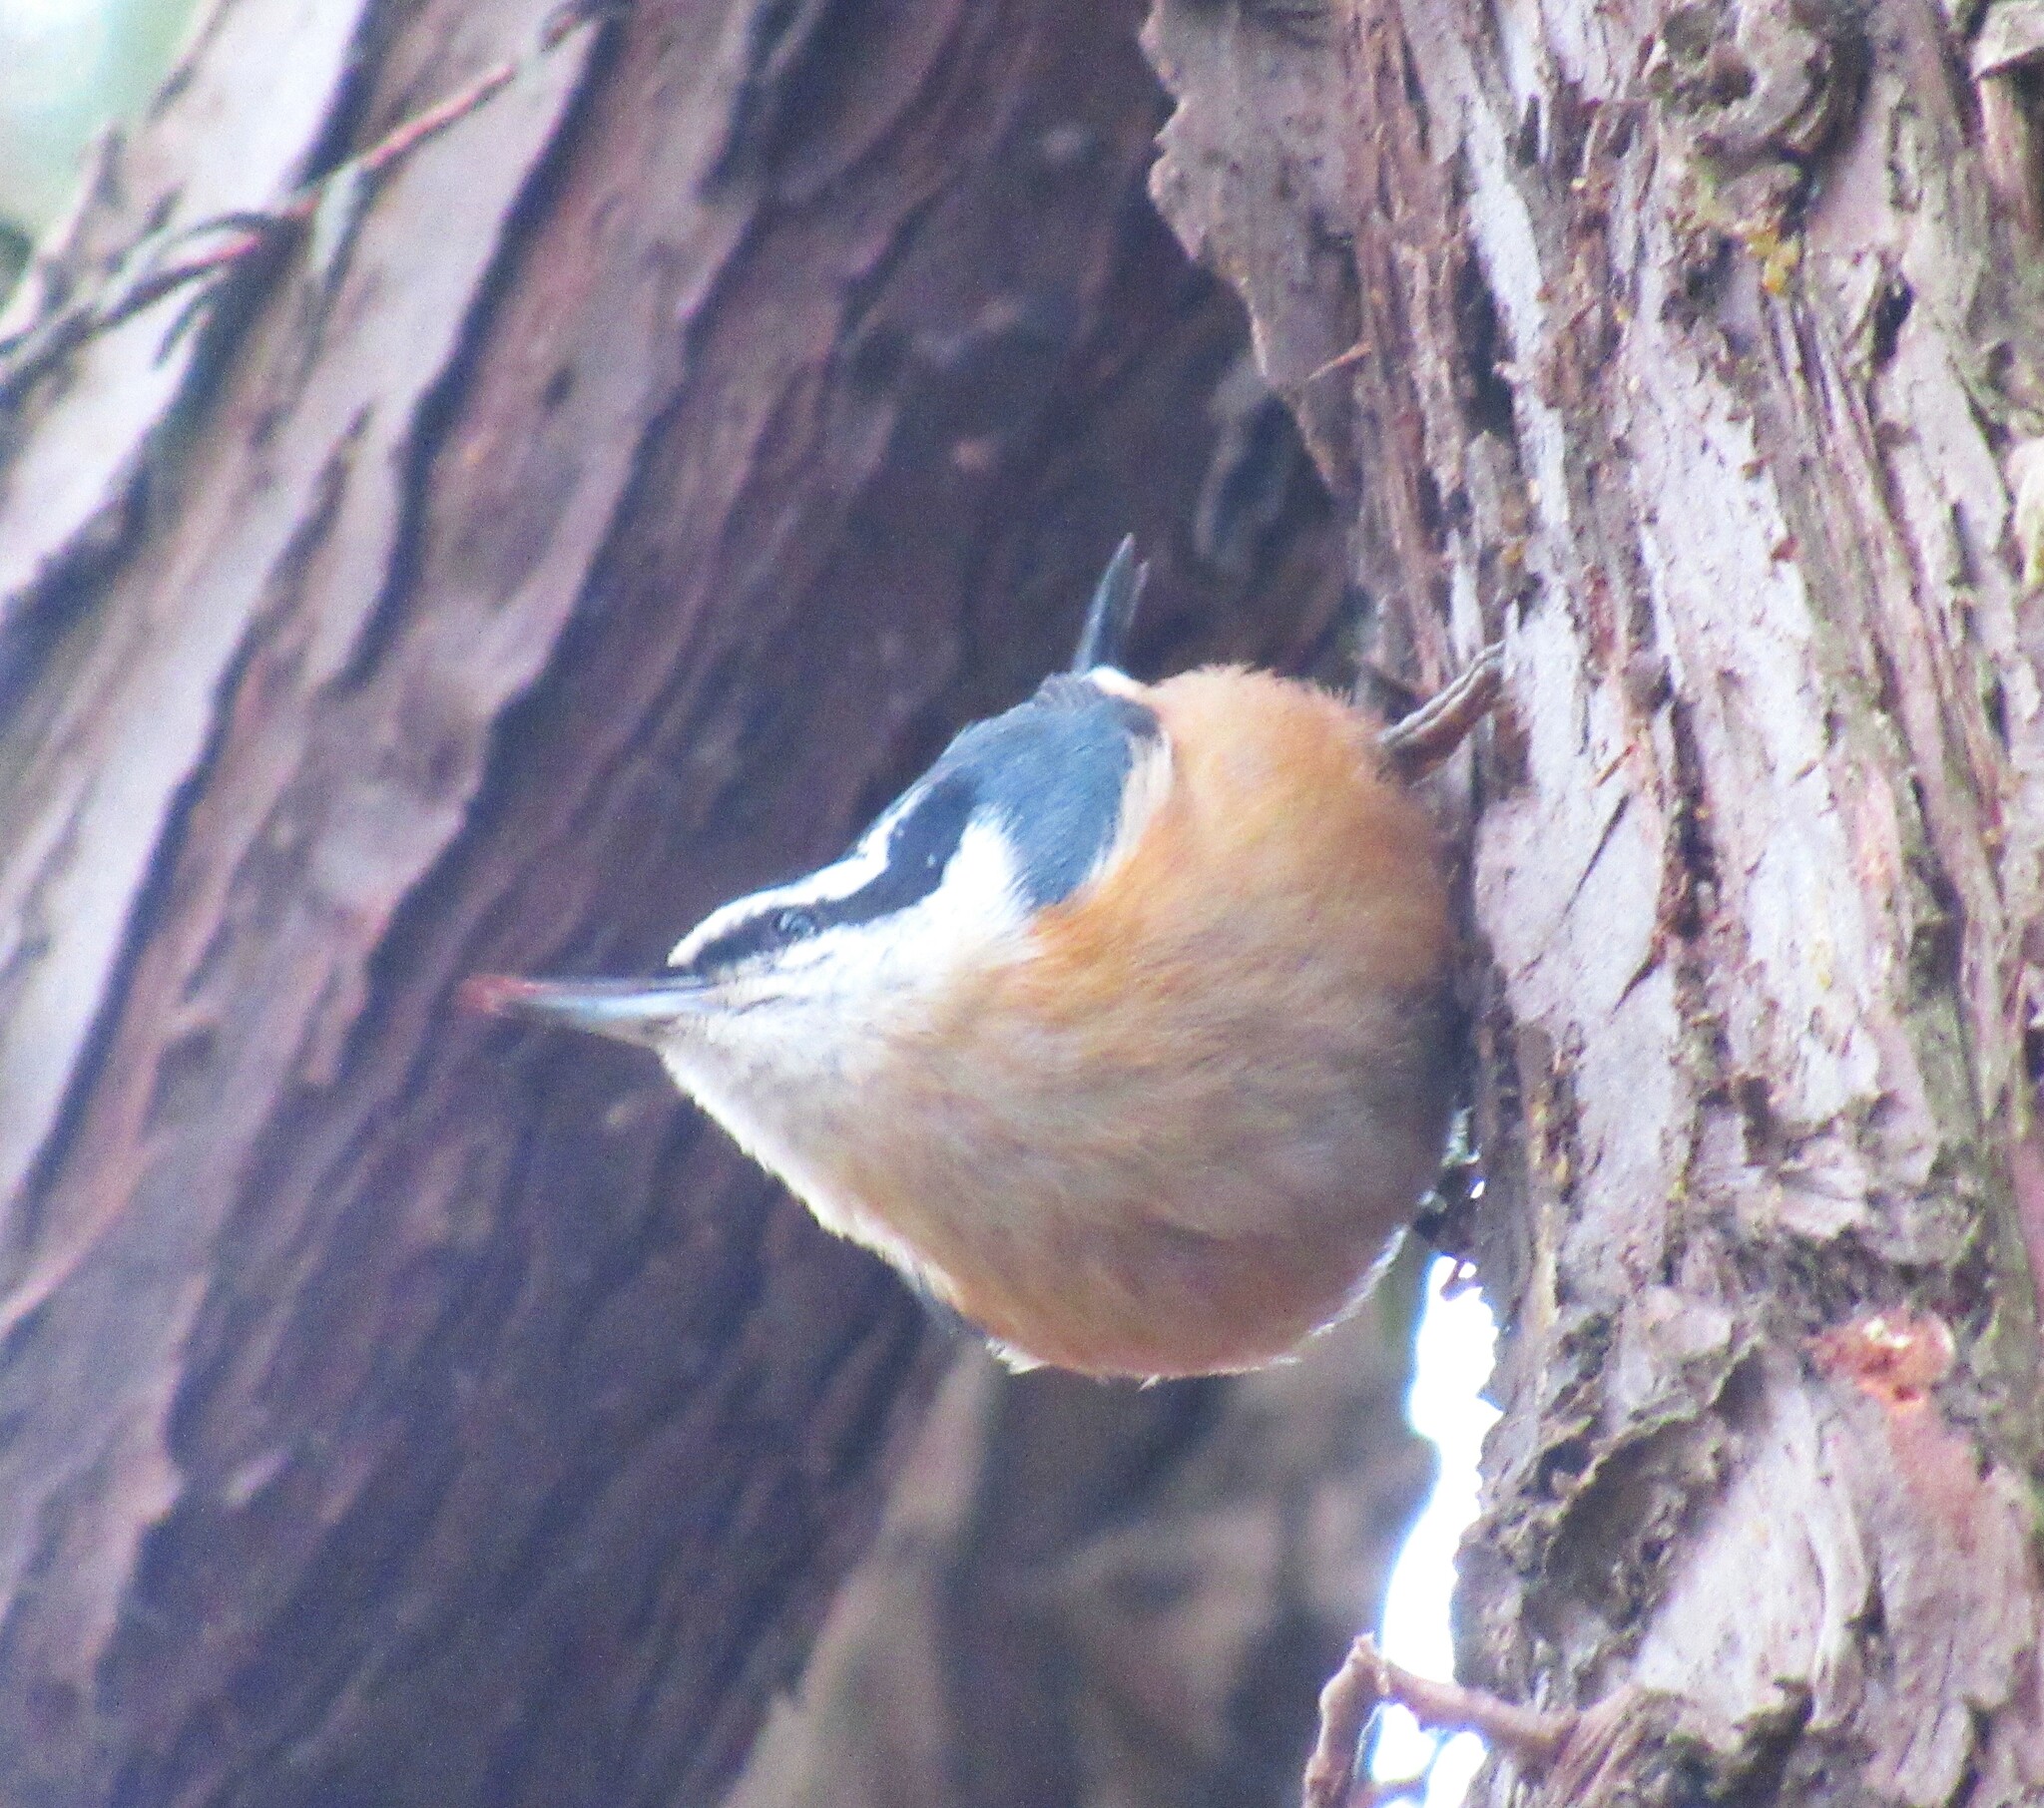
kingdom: Animalia
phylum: Chordata
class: Aves
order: Passeriformes
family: Sittidae
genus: Sitta
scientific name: Sitta canadensis
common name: Red-breasted nuthatch
